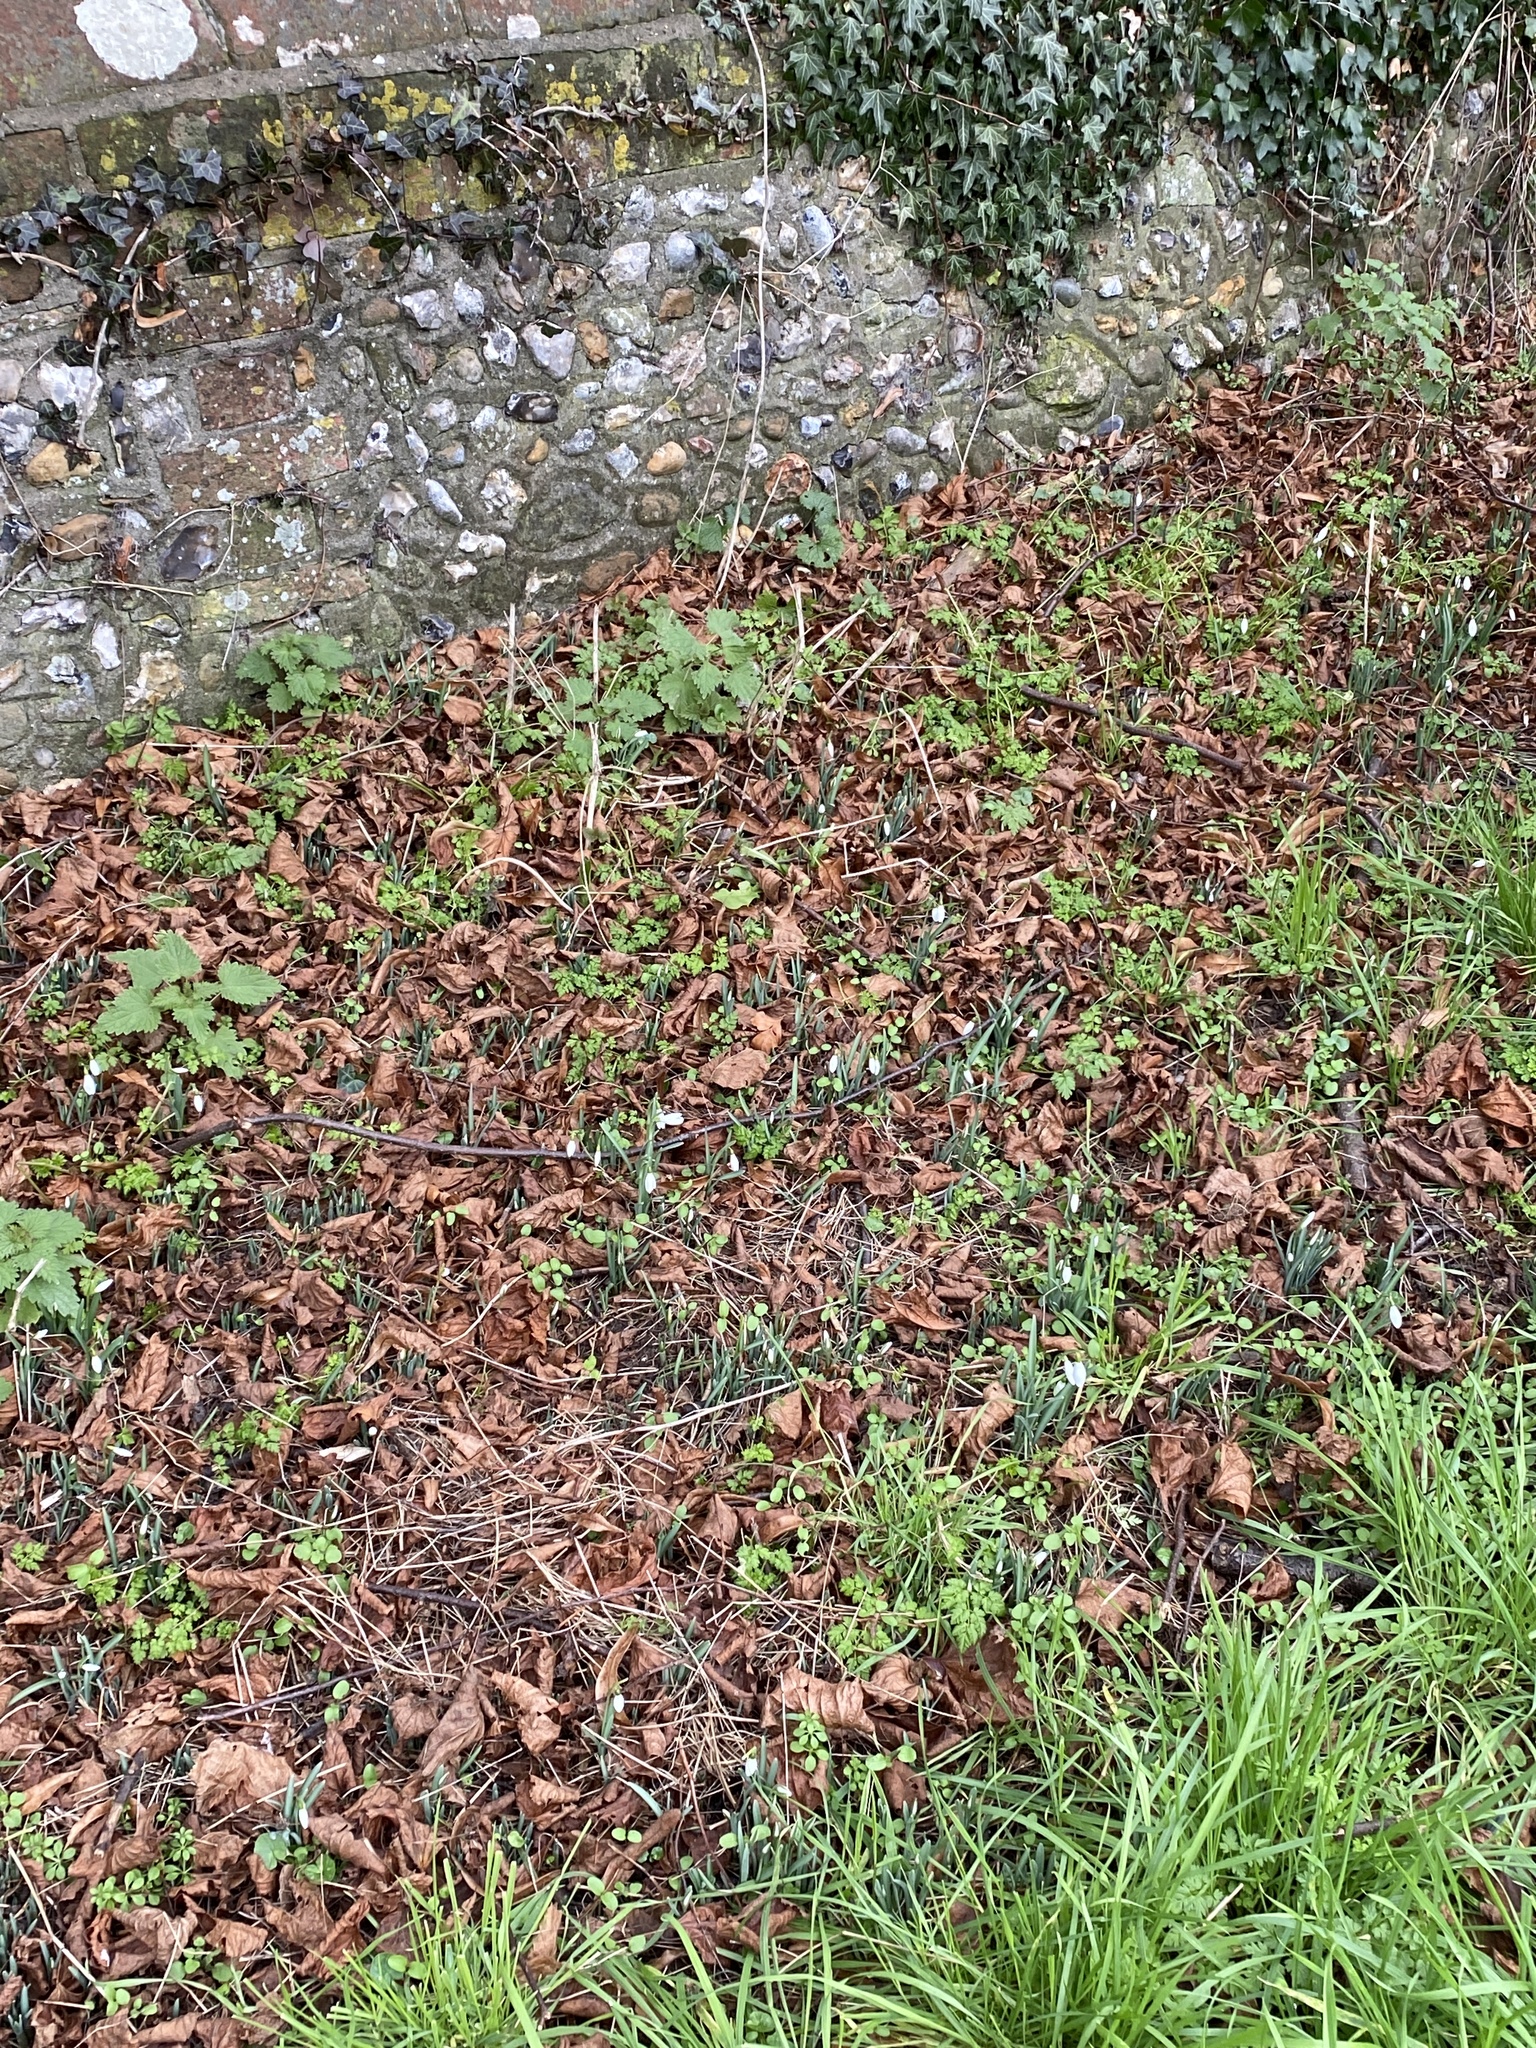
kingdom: Plantae
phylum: Tracheophyta
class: Liliopsida
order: Asparagales
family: Amaryllidaceae
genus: Galanthus
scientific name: Galanthus nivalis
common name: Snowdrop
